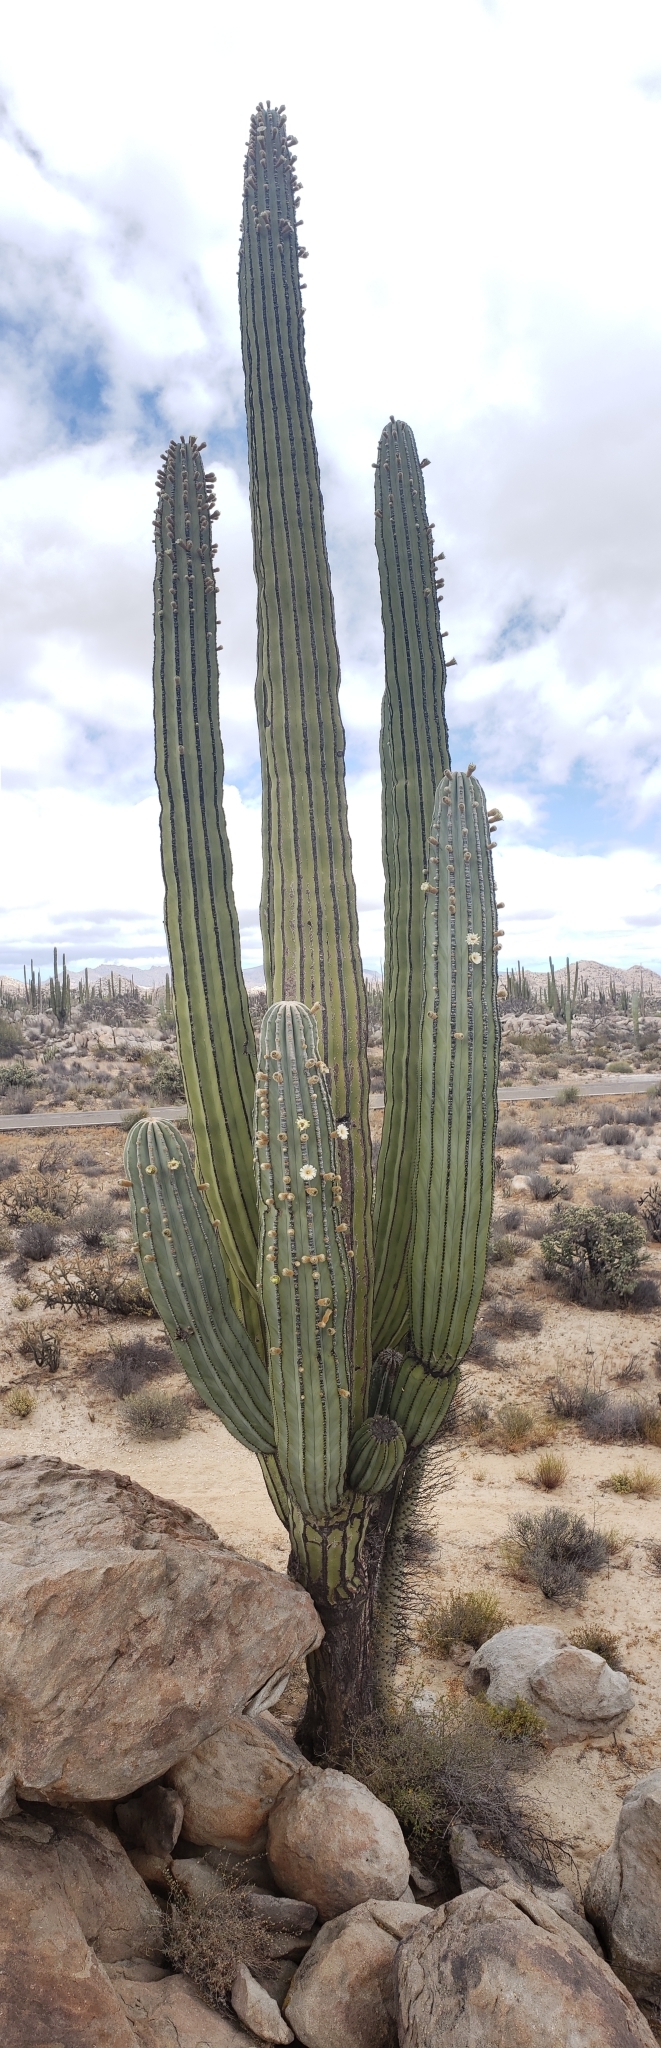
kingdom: Plantae
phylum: Tracheophyta
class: Magnoliopsida
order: Caryophyllales
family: Cactaceae
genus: Pachycereus
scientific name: Pachycereus pringlei
